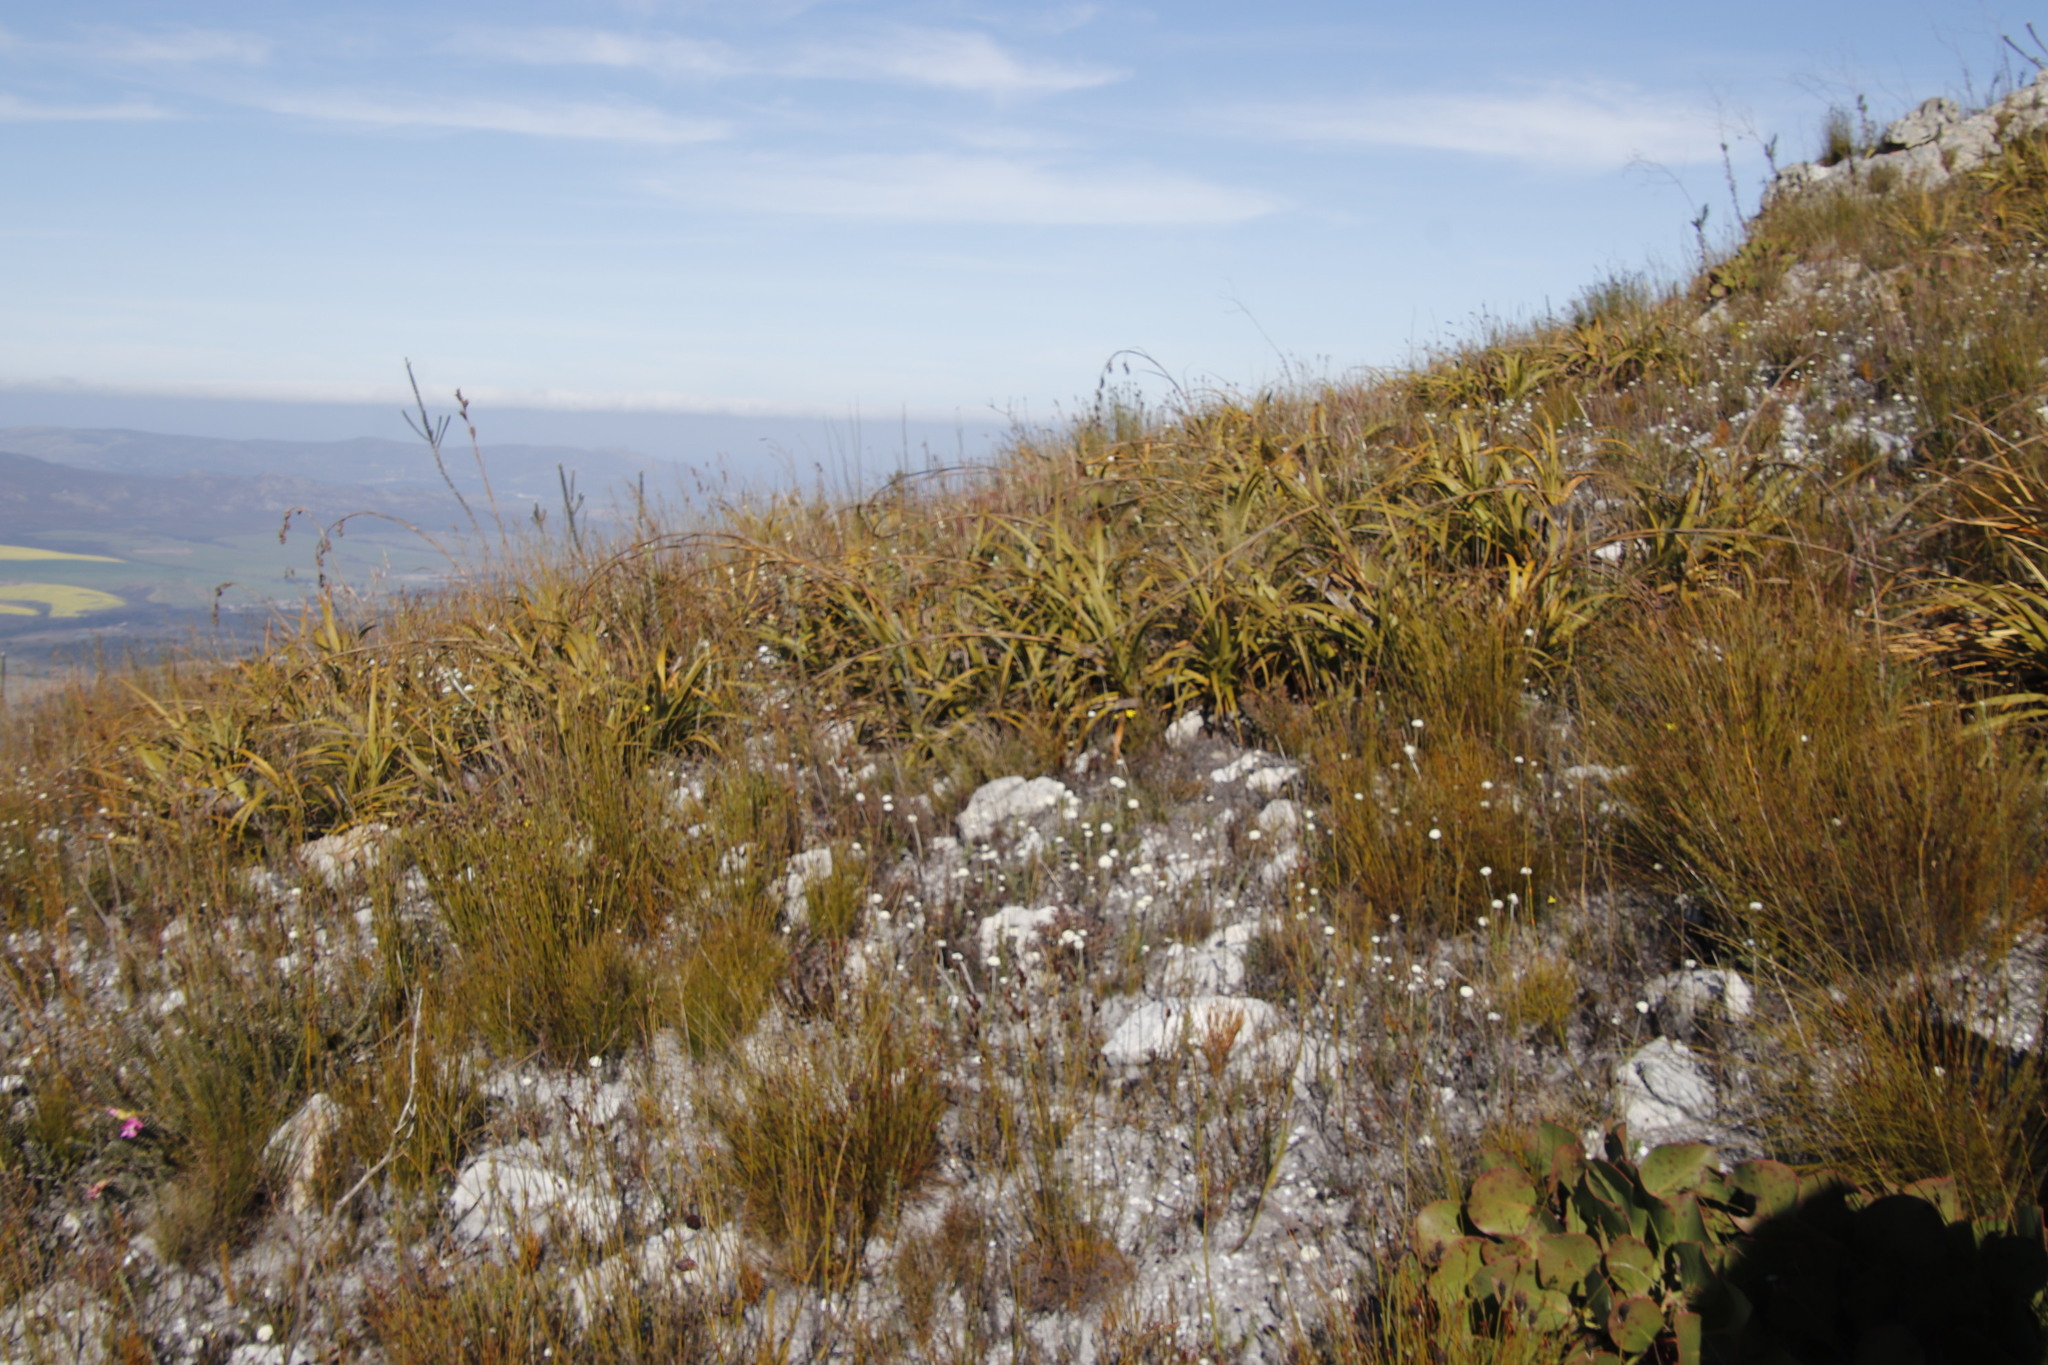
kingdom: Plantae
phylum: Tracheophyta
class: Liliopsida
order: Poales
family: Cyperaceae
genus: Tetraria
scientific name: Tetraria thermalis
